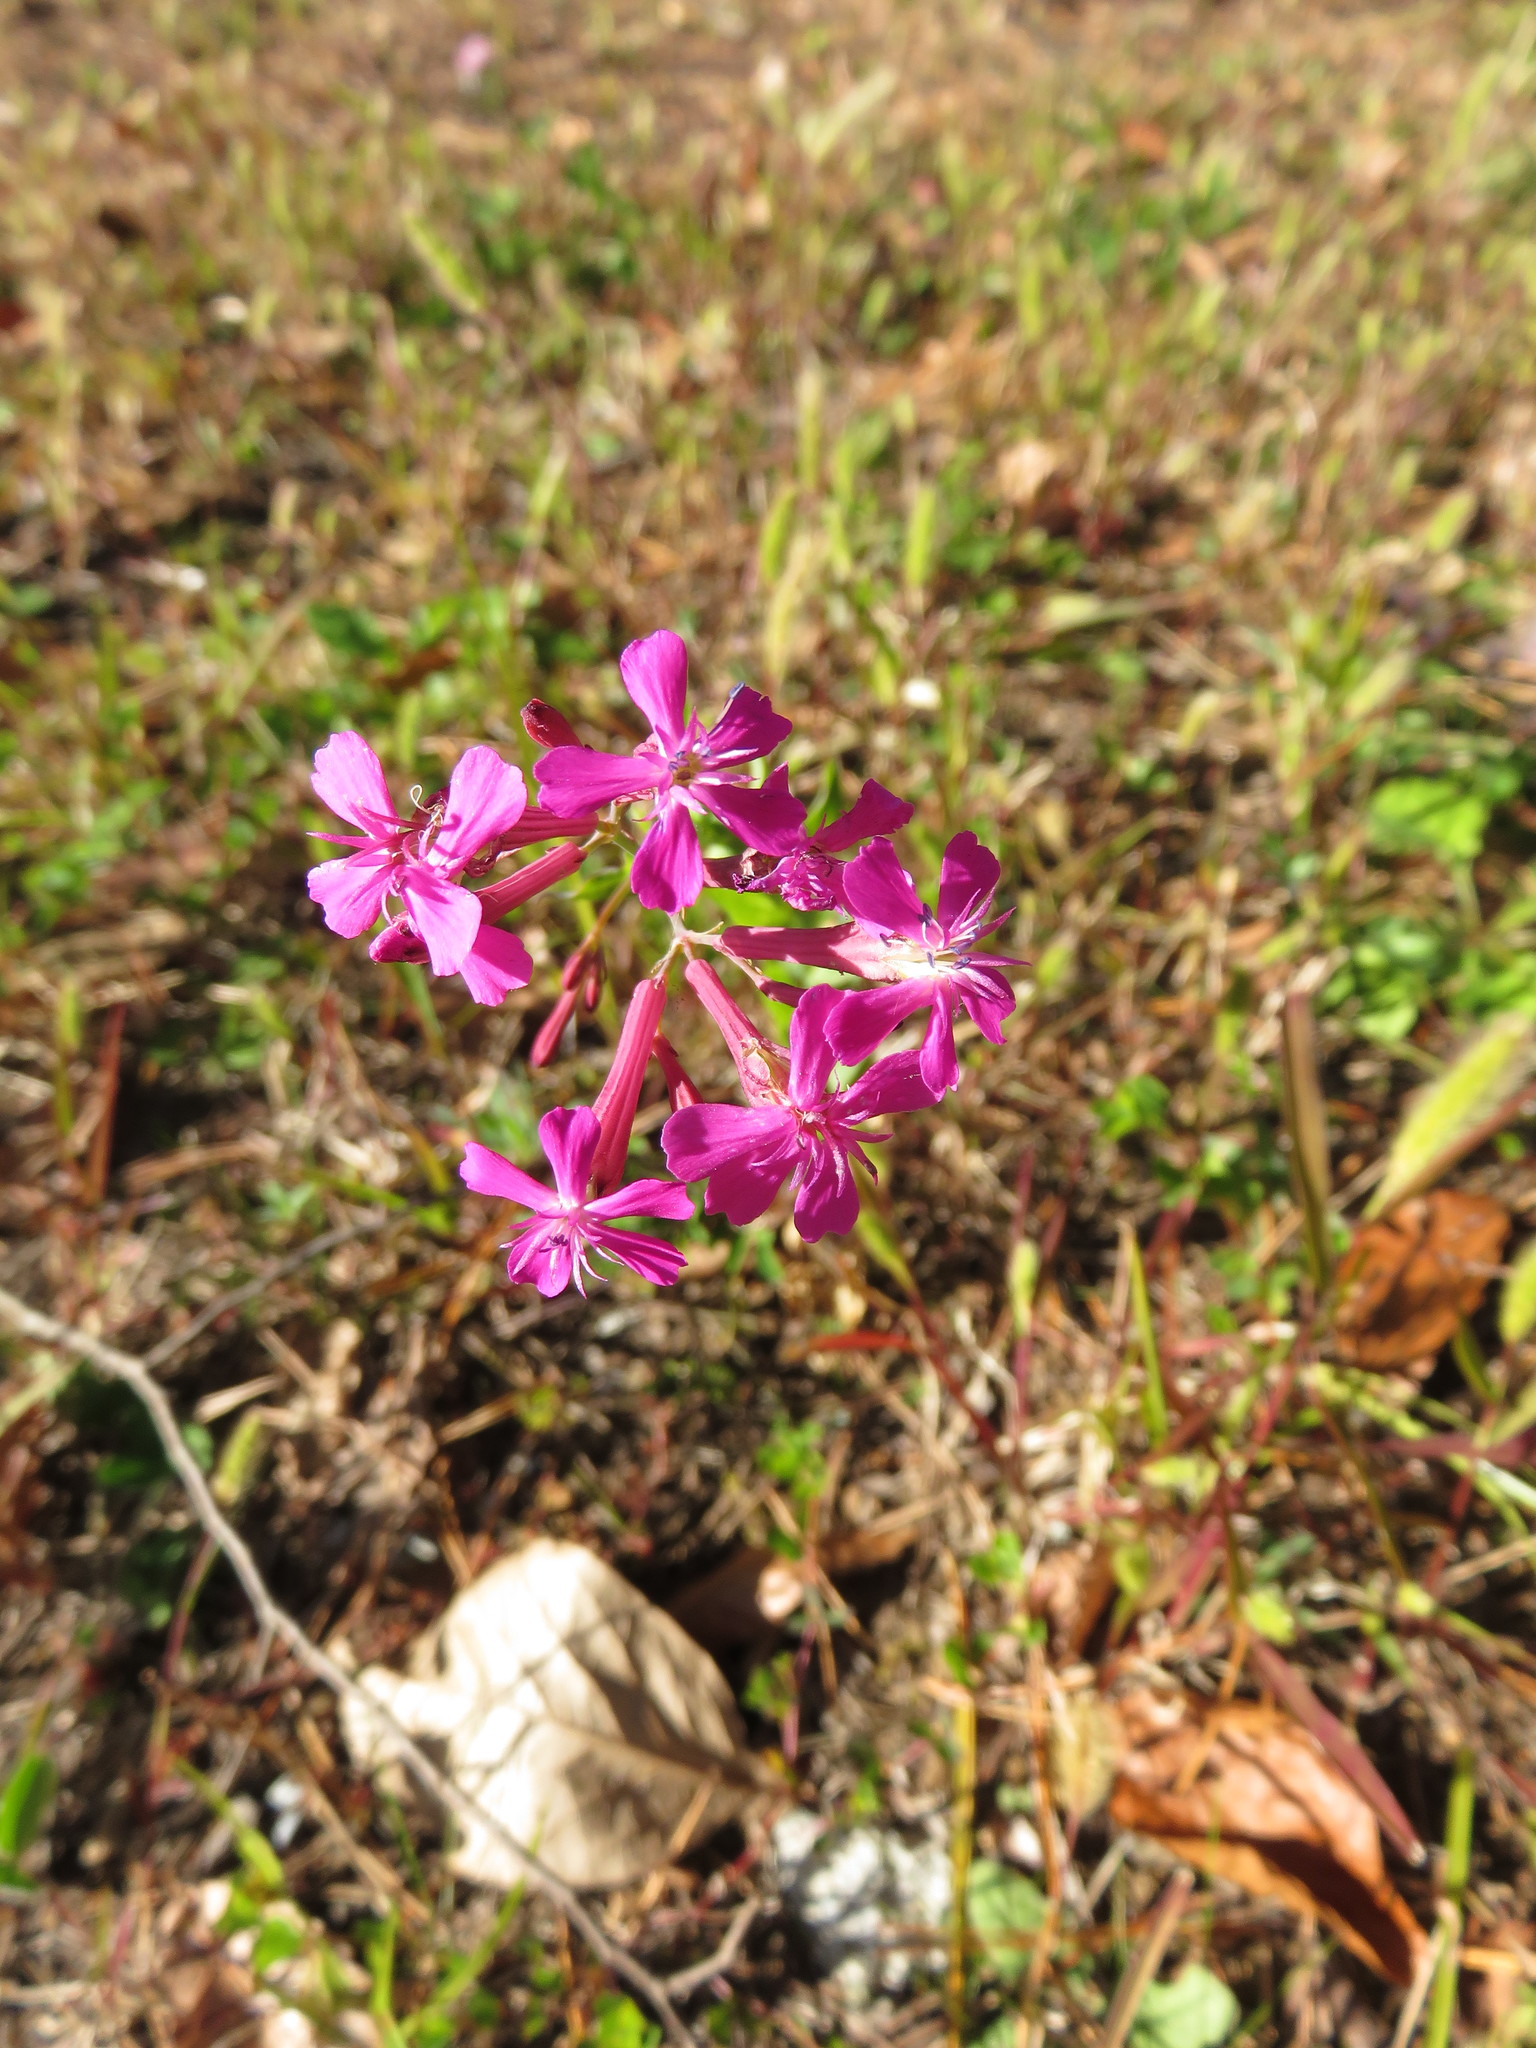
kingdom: Plantae
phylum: Tracheophyta
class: Magnoliopsida
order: Caryophyllales
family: Caryophyllaceae
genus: Atocion
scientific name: Atocion armeria
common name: Sweet william catchfly
